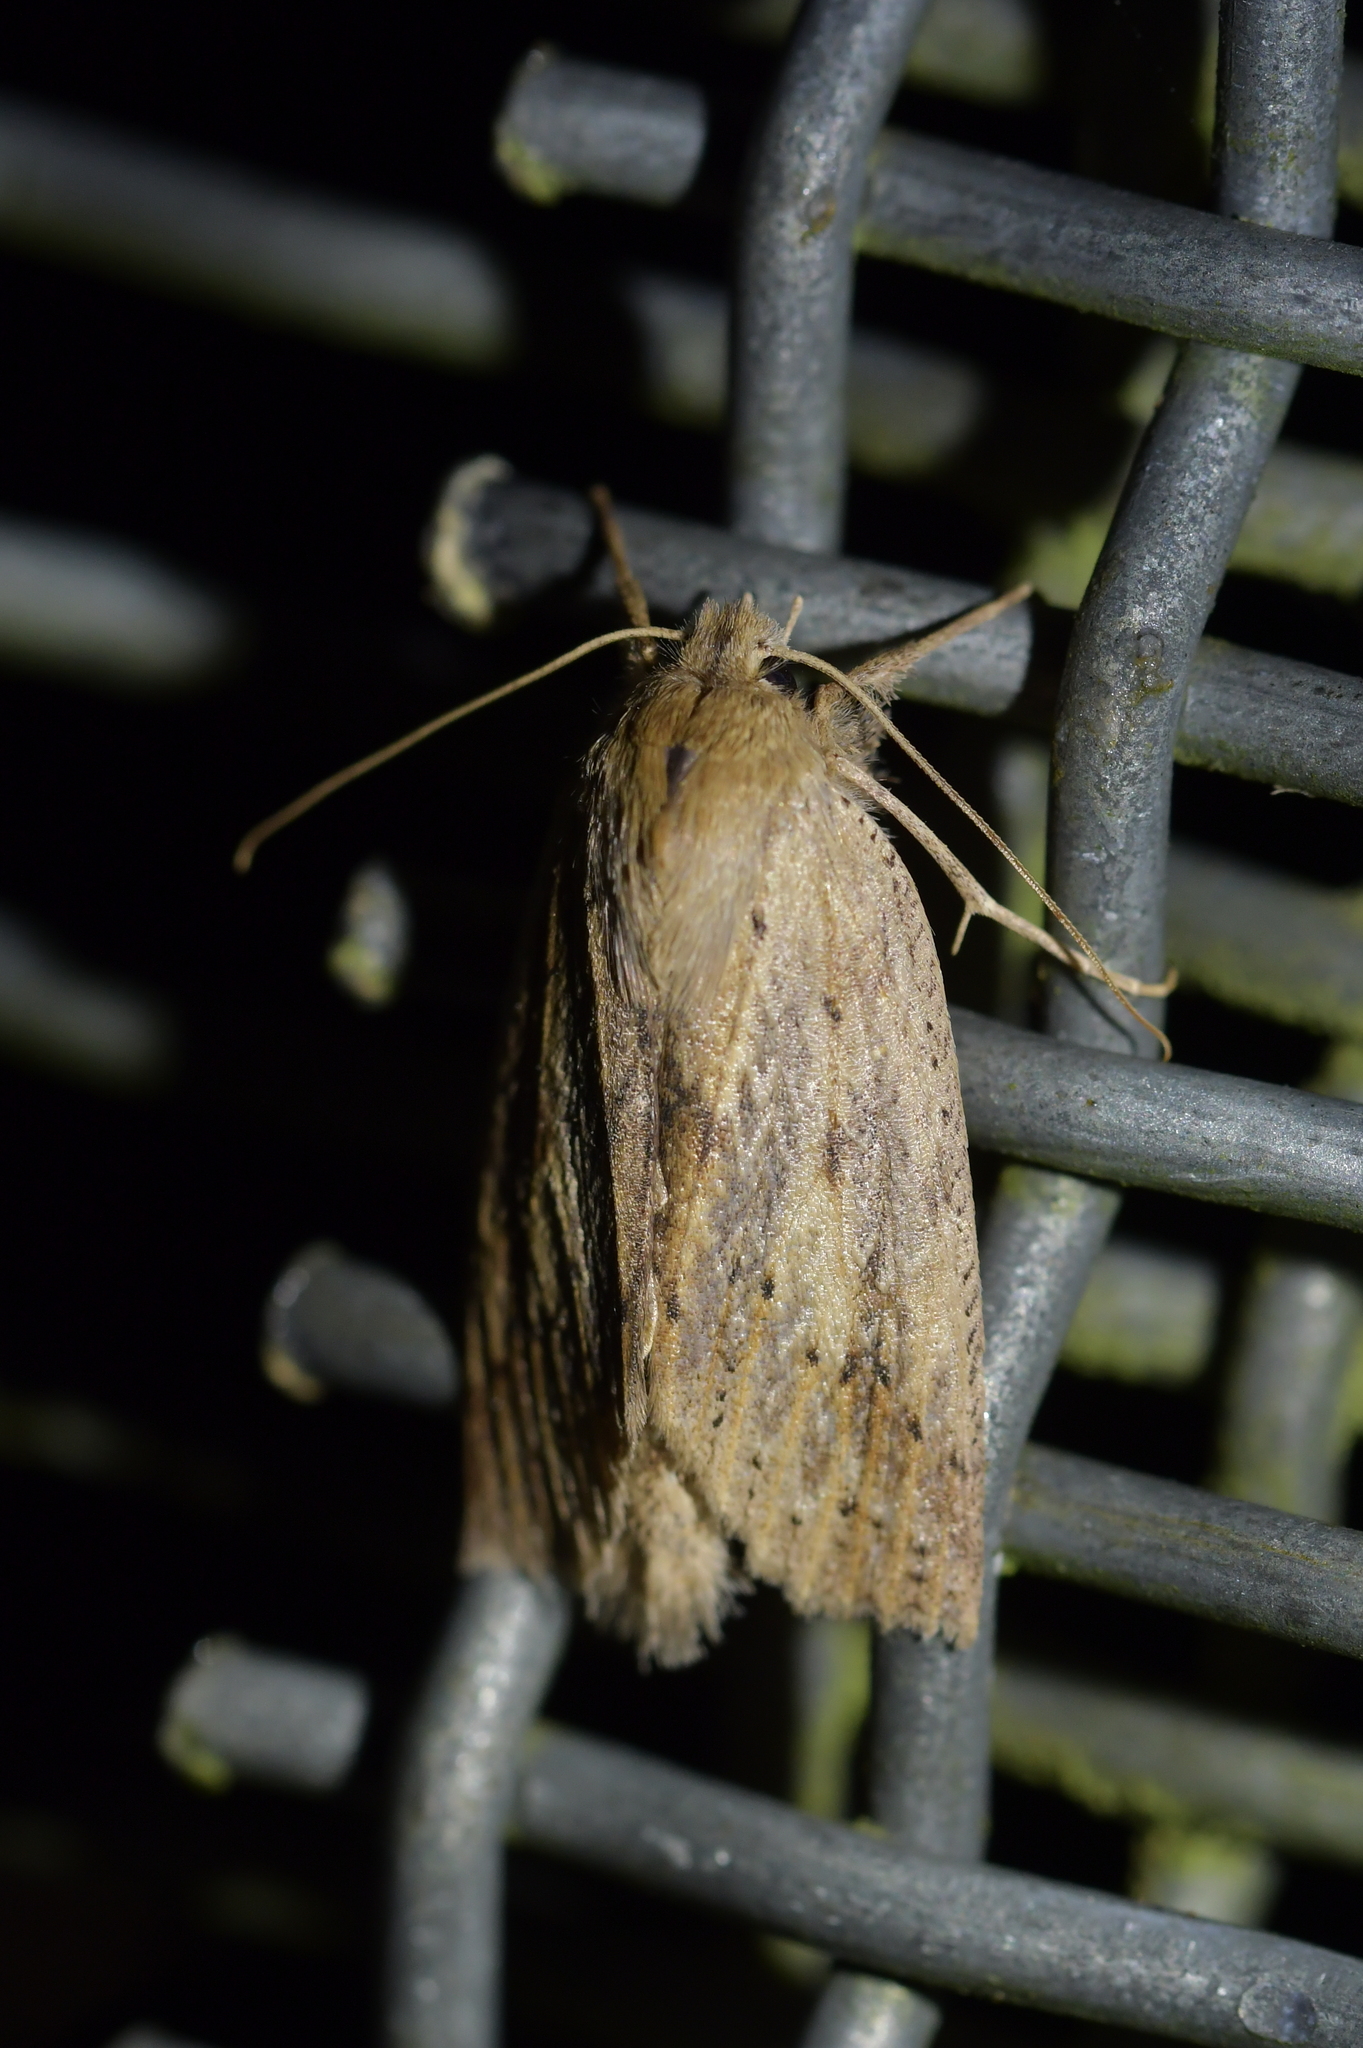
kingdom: Animalia
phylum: Arthropoda
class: Insecta
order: Lepidoptera
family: Geometridae
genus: Declana
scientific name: Declana leptomera
